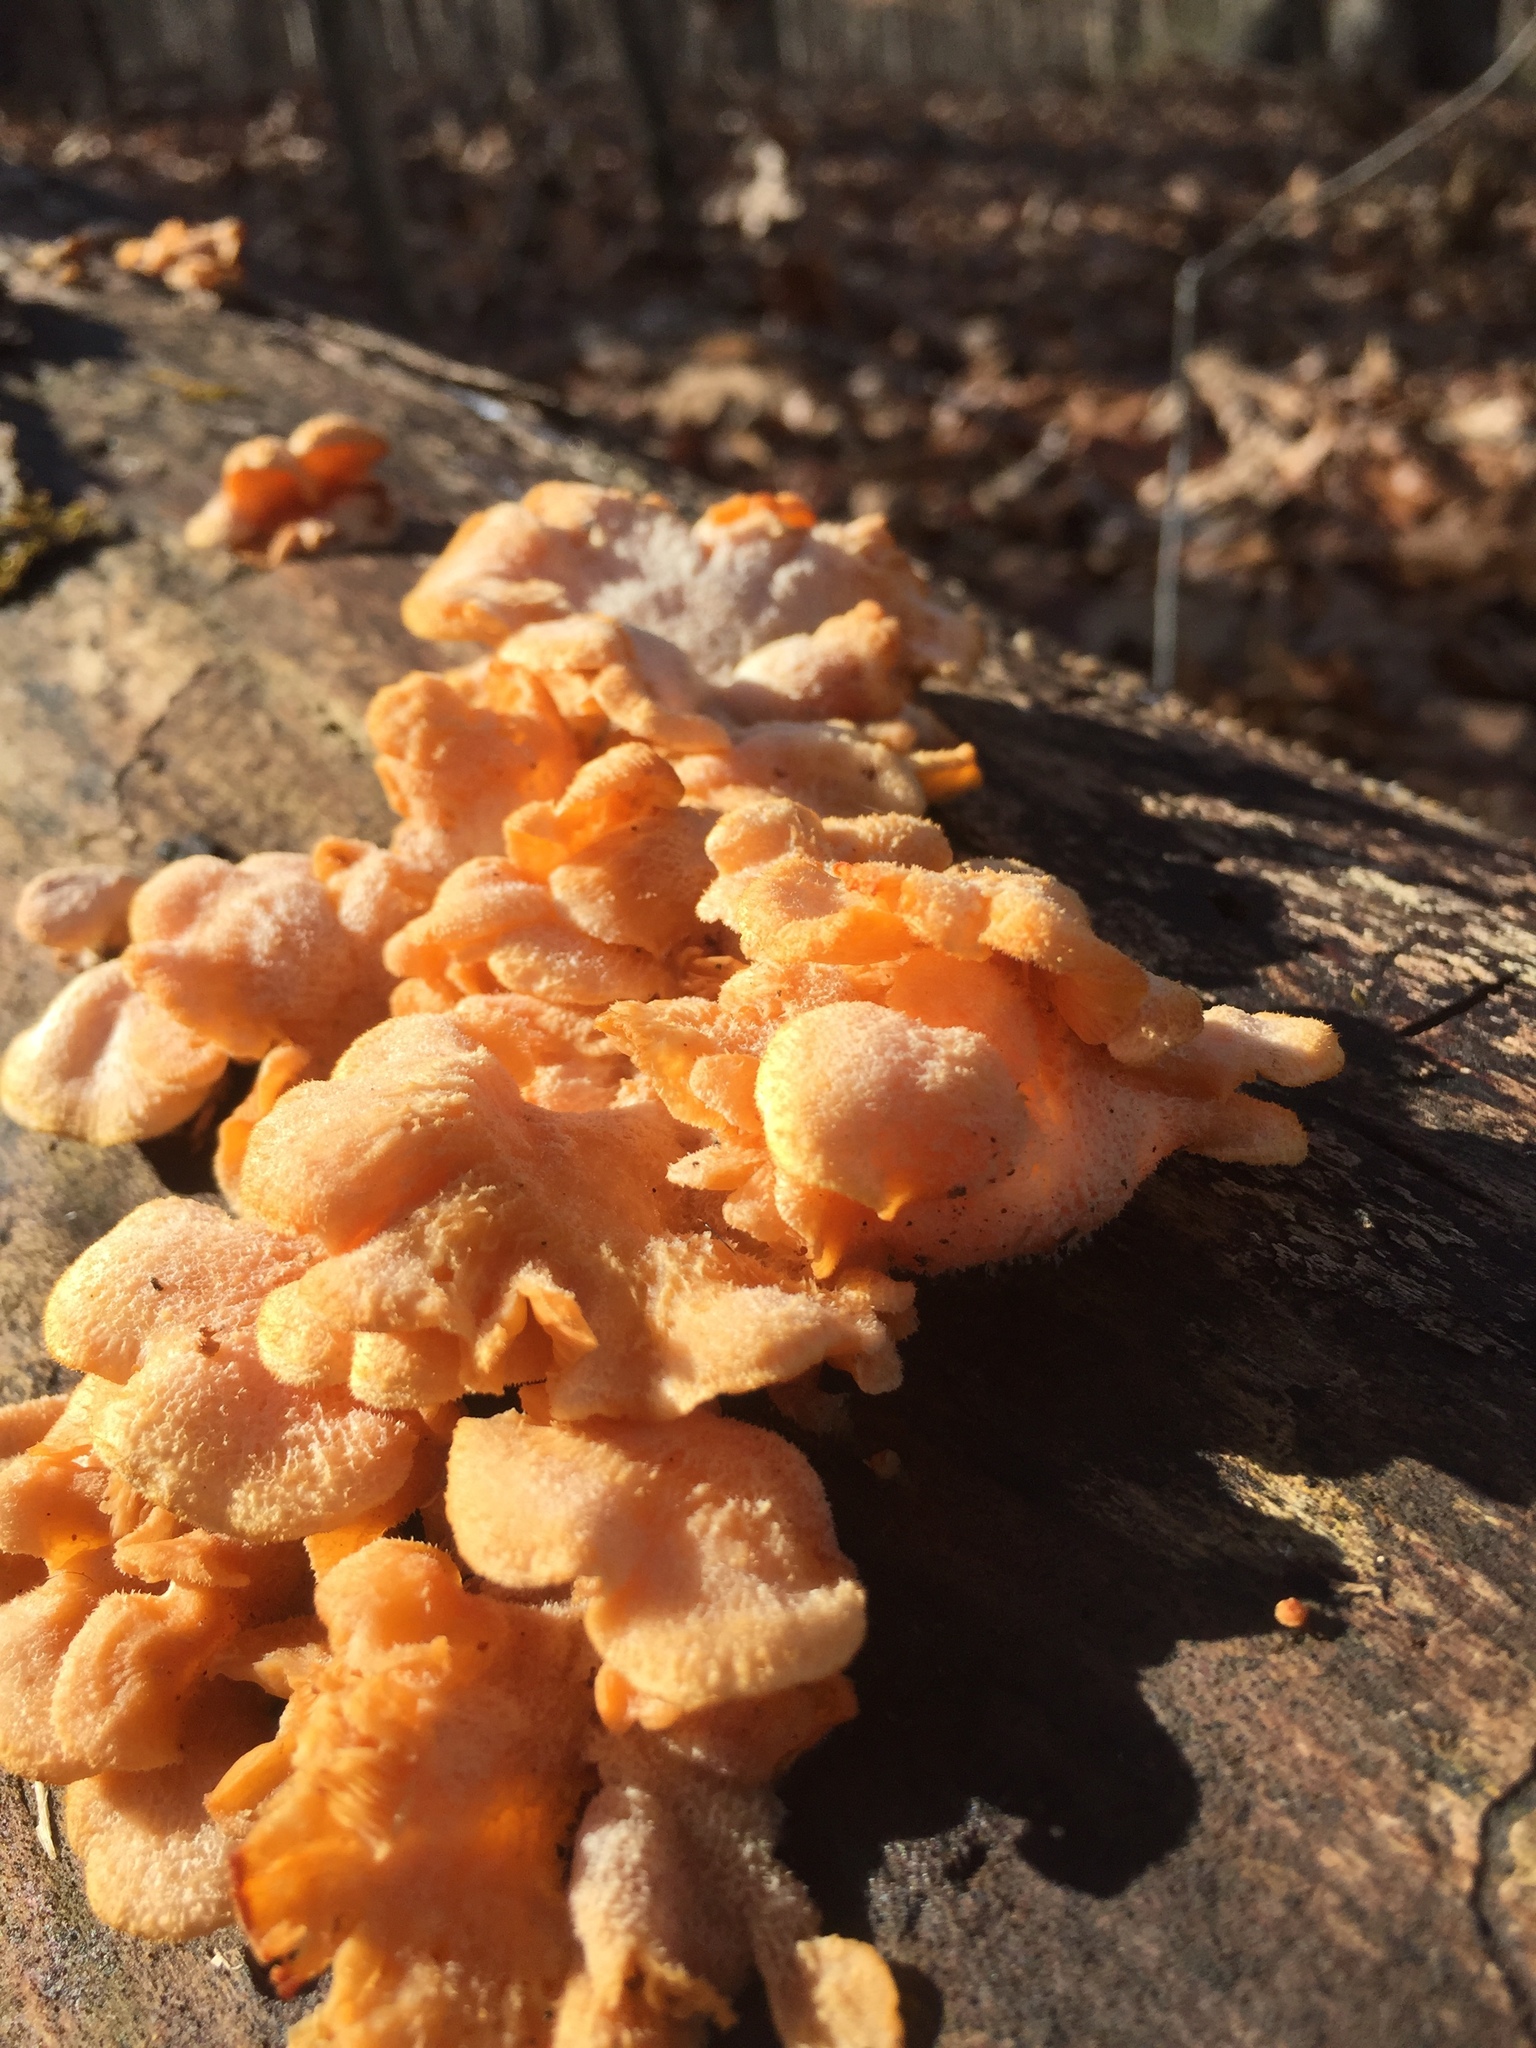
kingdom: Fungi
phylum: Basidiomycota
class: Agaricomycetes
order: Agaricales
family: Phyllotopsidaceae
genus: Phyllotopsis
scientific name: Phyllotopsis nidulans
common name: Orange mock oyster
